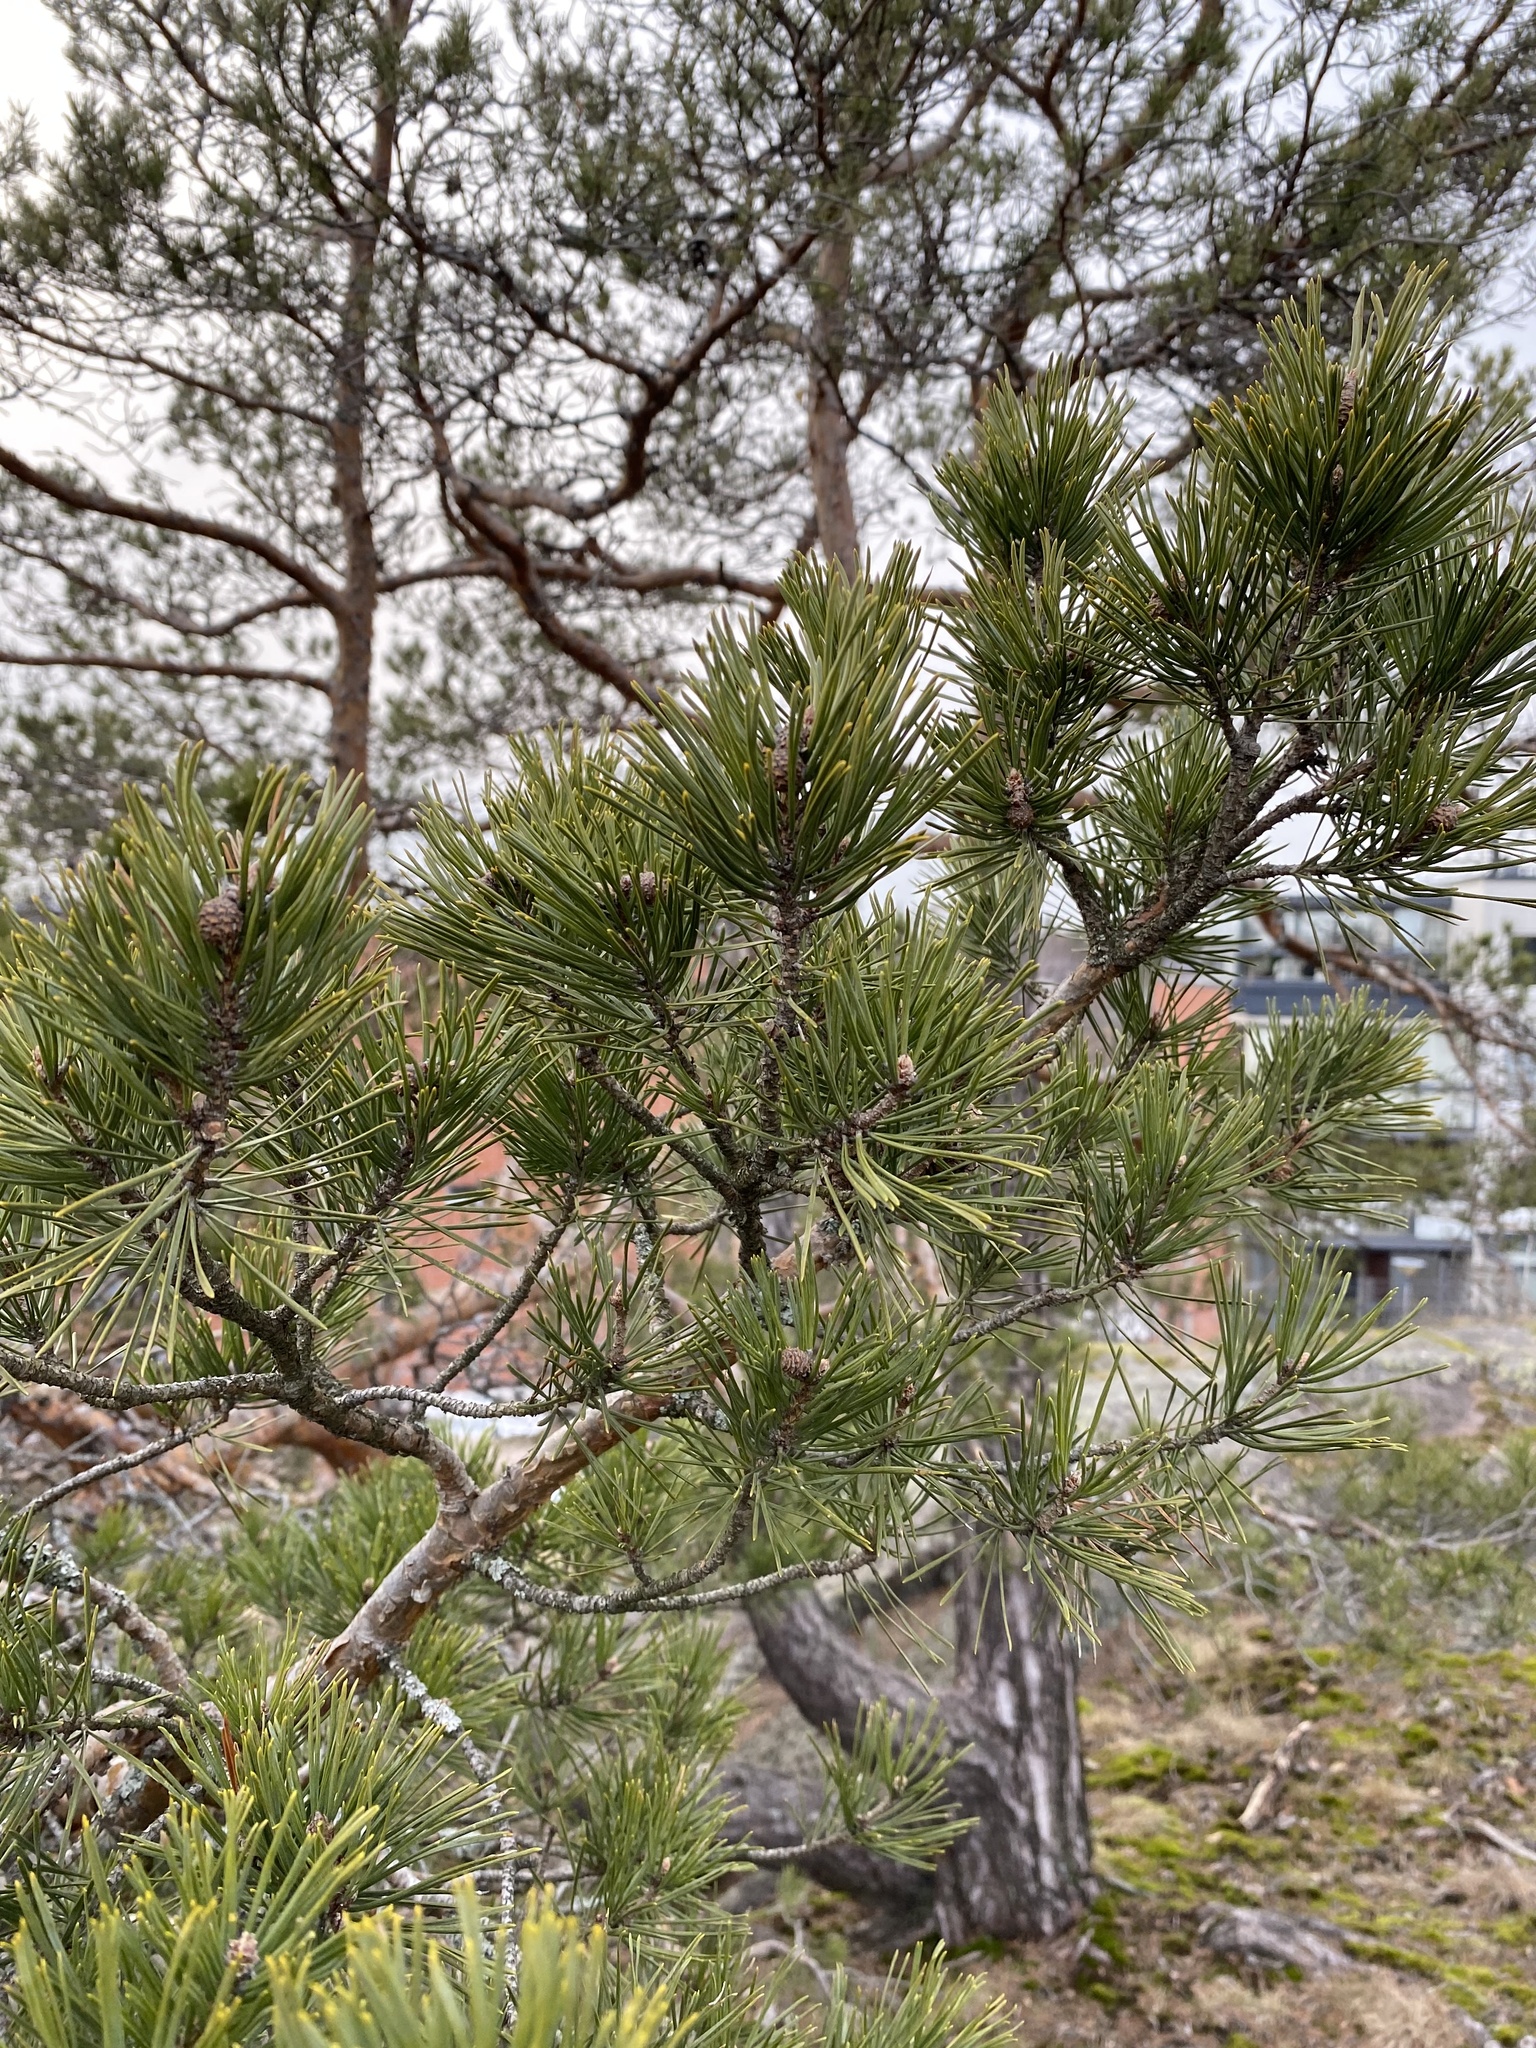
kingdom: Plantae
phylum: Tracheophyta
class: Pinopsida
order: Pinales
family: Pinaceae
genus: Pinus
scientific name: Pinus sylvestris
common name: Scots pine
